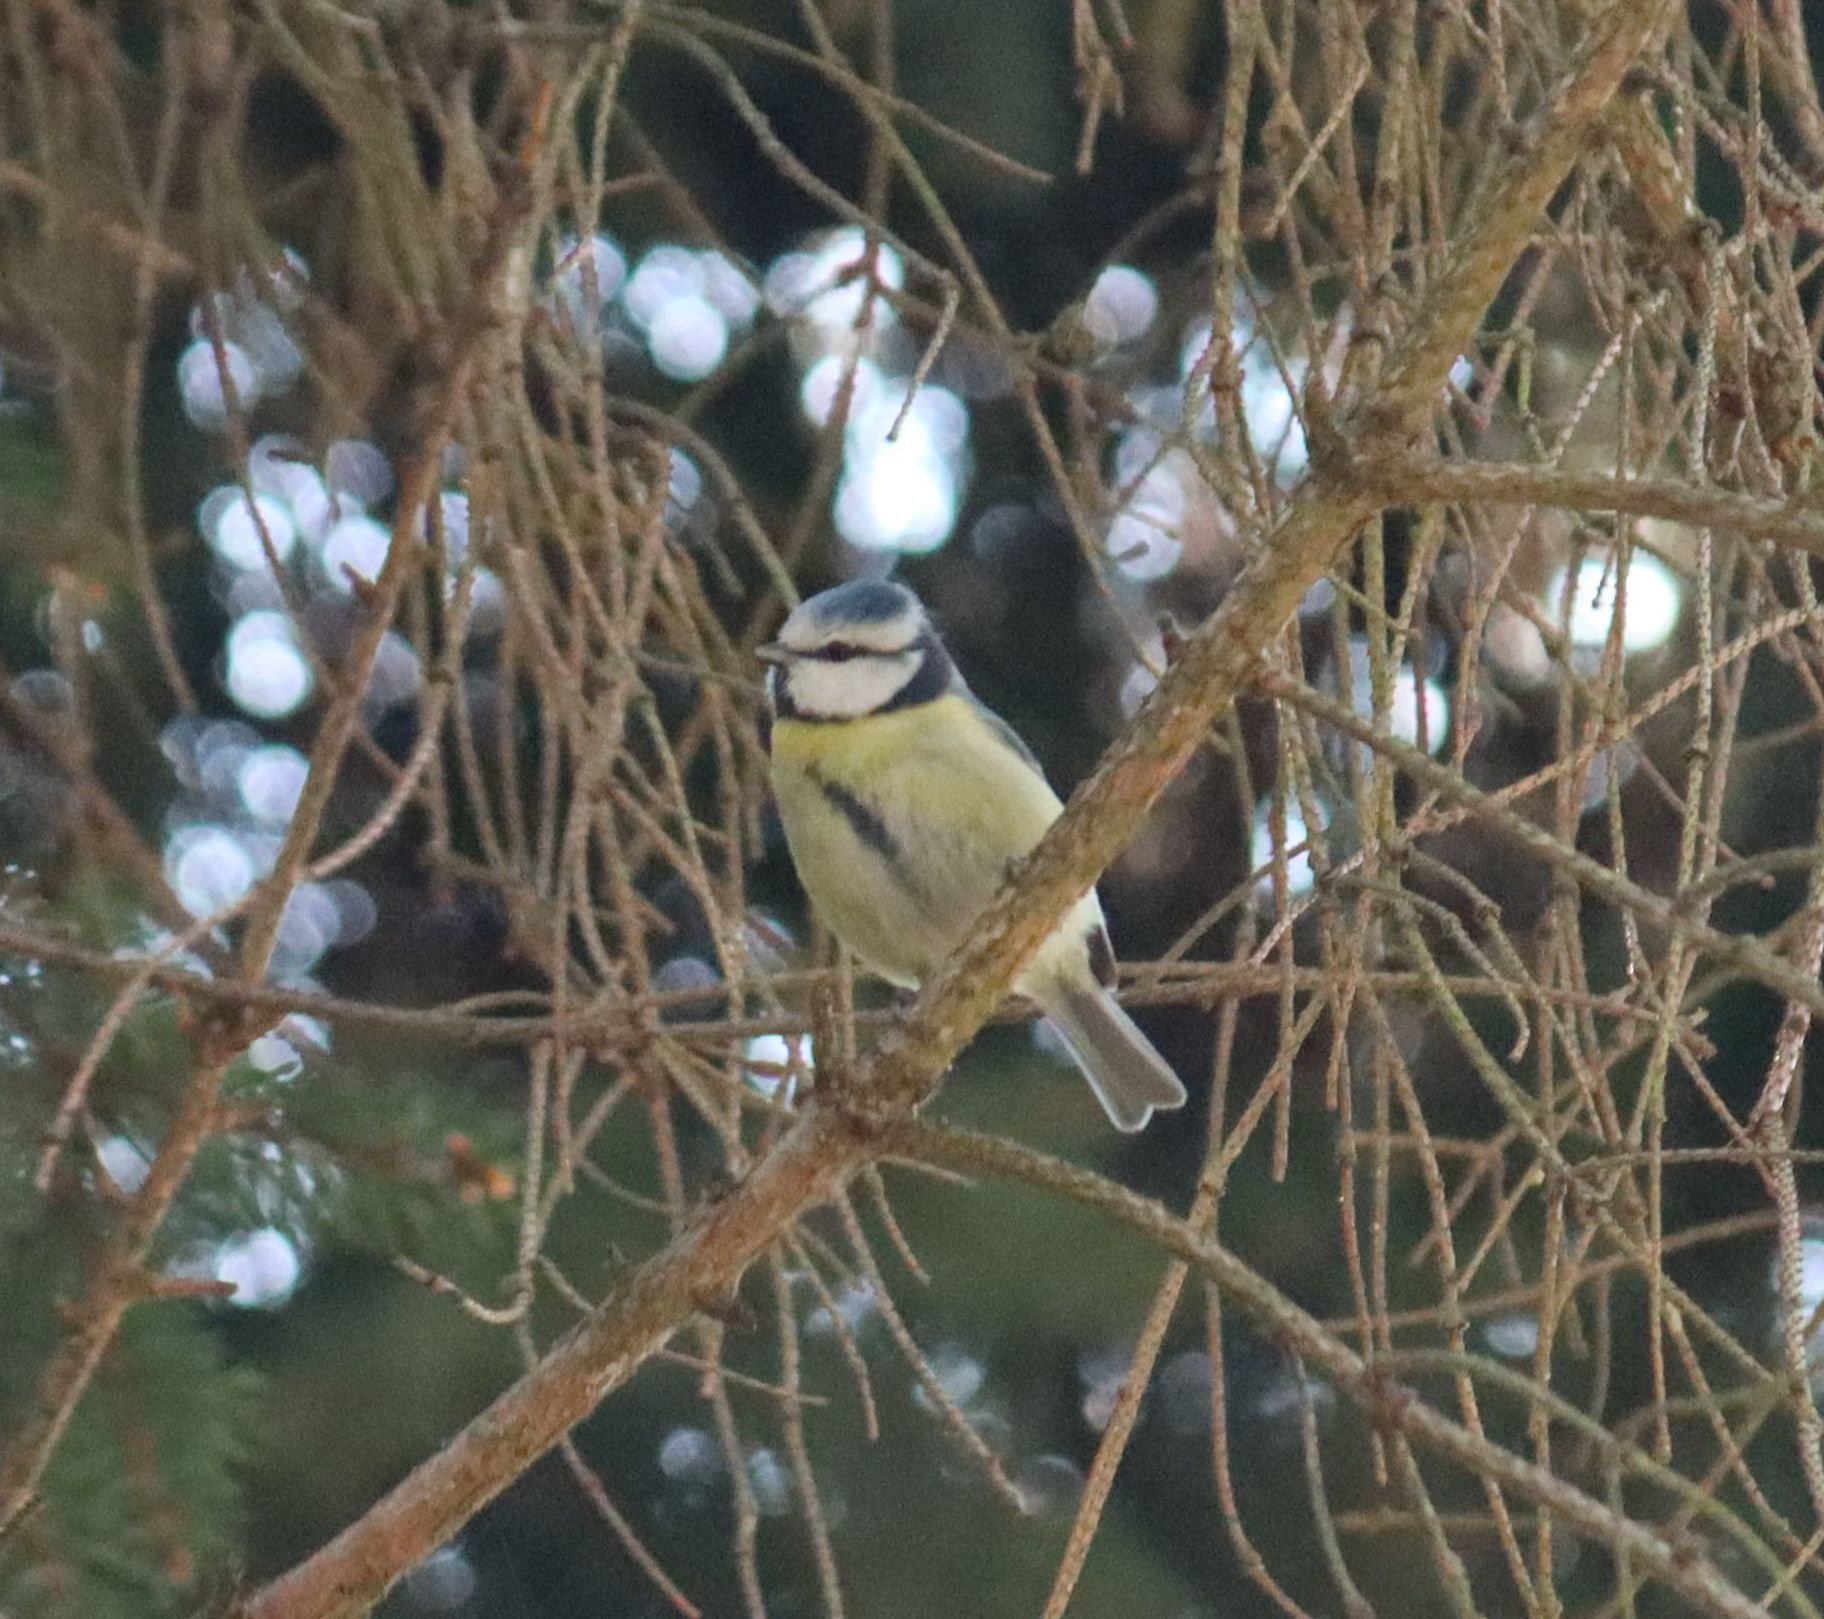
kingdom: Animalia
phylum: Chordata
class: Aves
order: Passeriformes
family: Paridae
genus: Cyanistes
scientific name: Cyanistes caeruleus
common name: Eurasian blue tit
